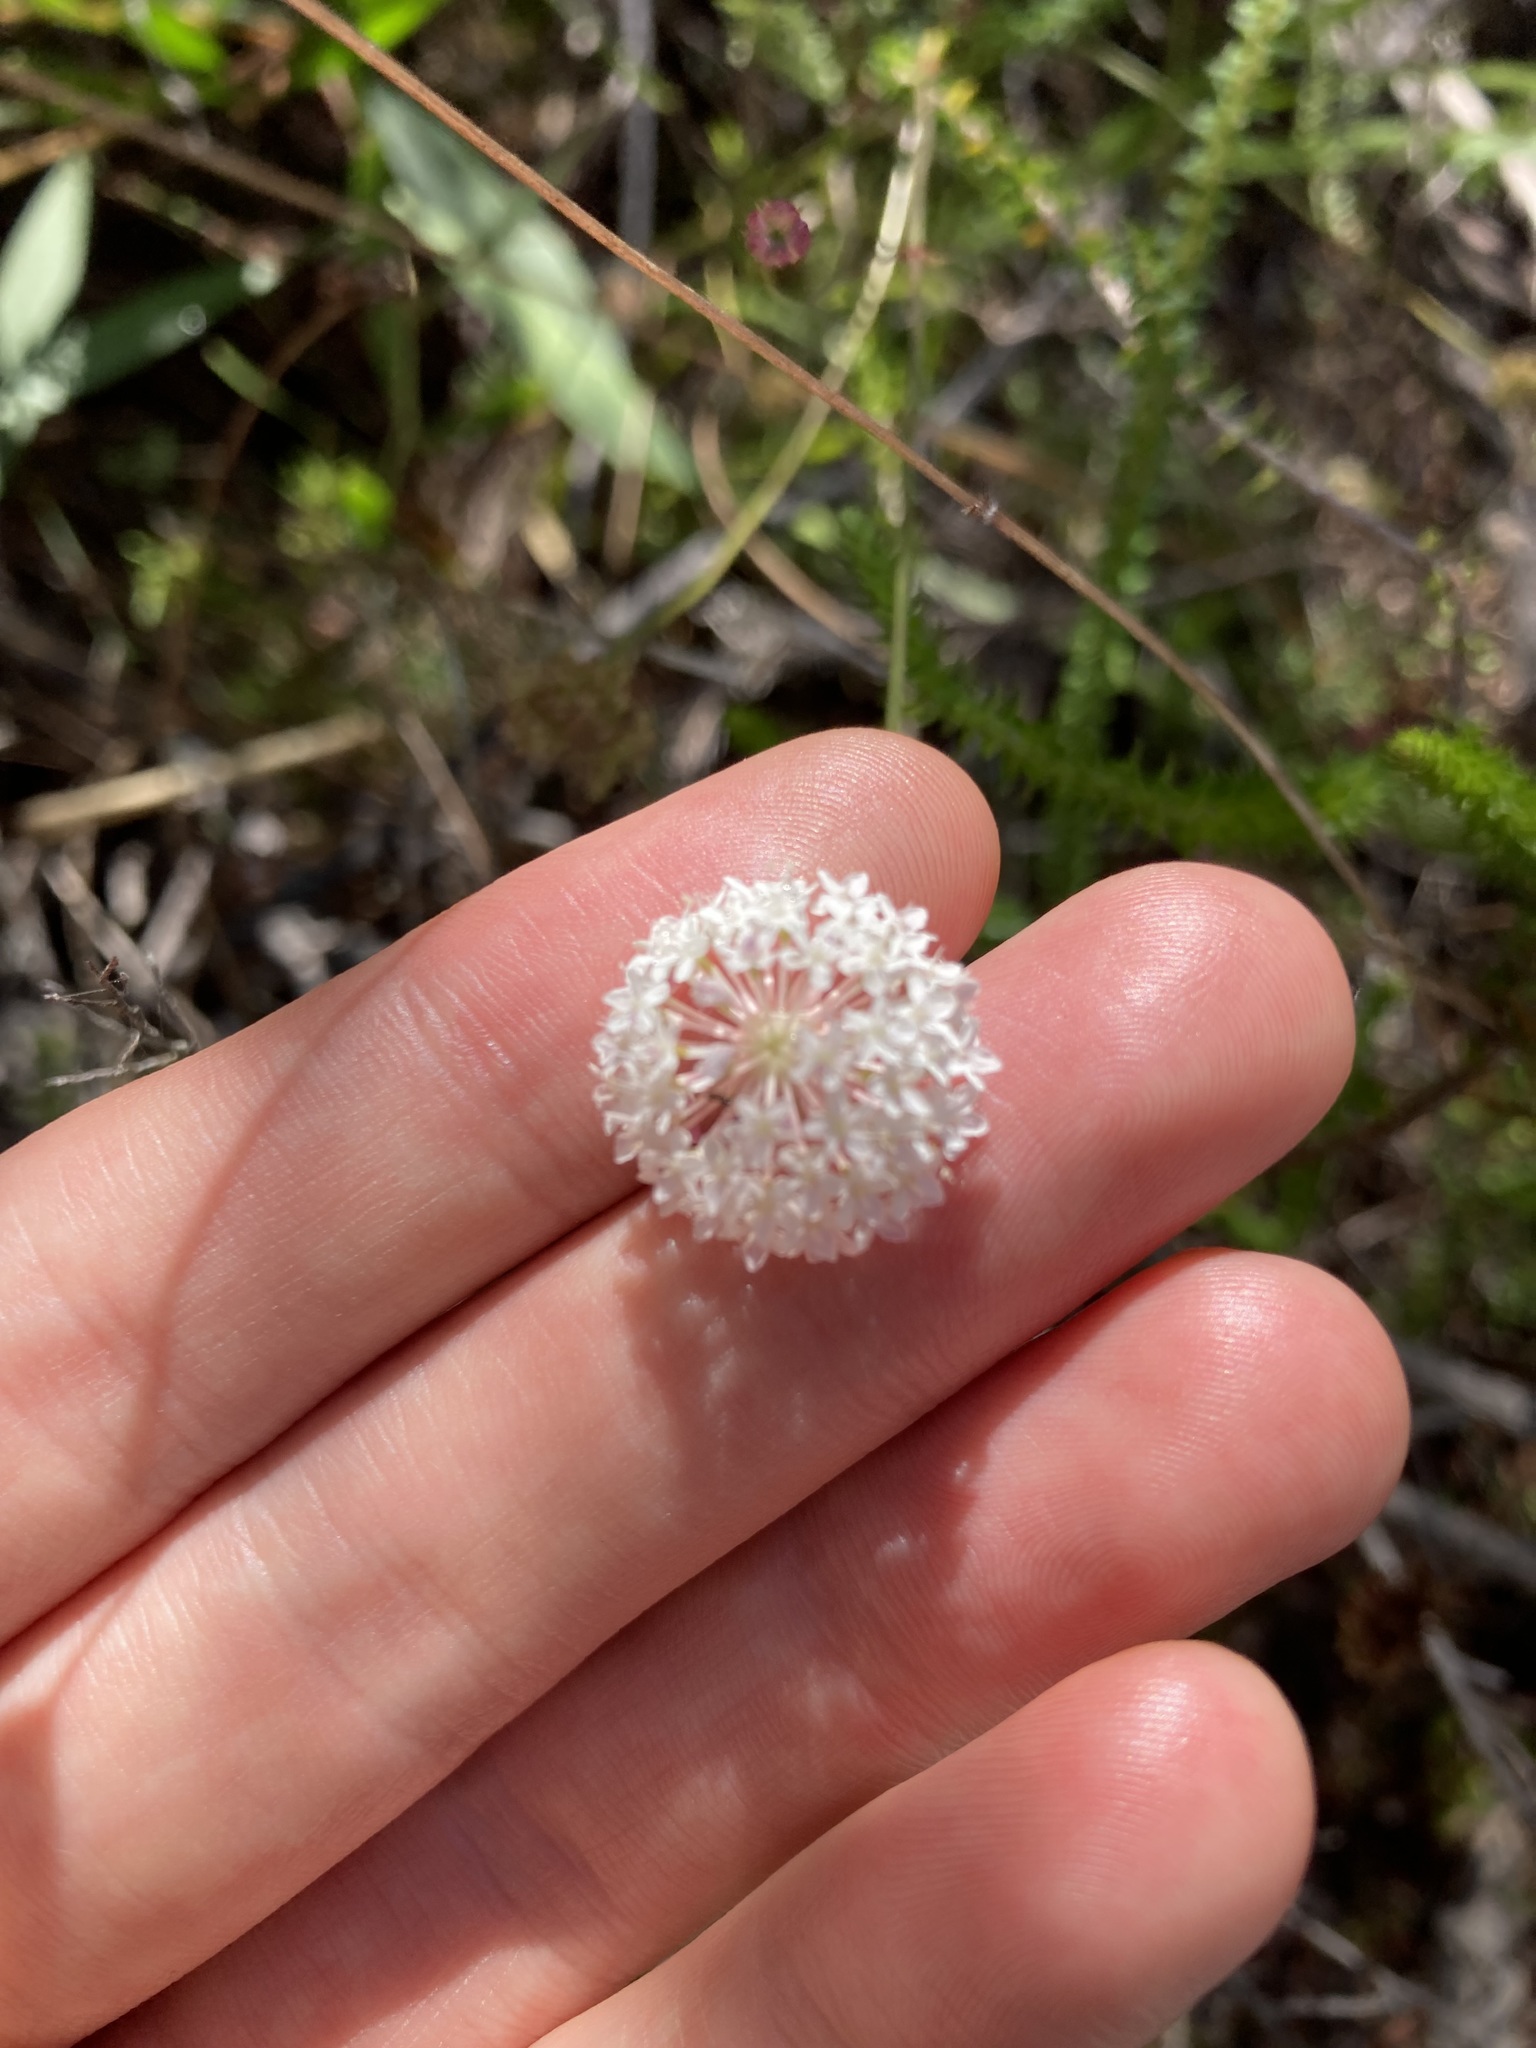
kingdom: Plantae
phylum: Tracheophyta
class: Magnoliopsida
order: Apiales
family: Araliaceae
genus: Trachymene
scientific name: Trachymene incisa
